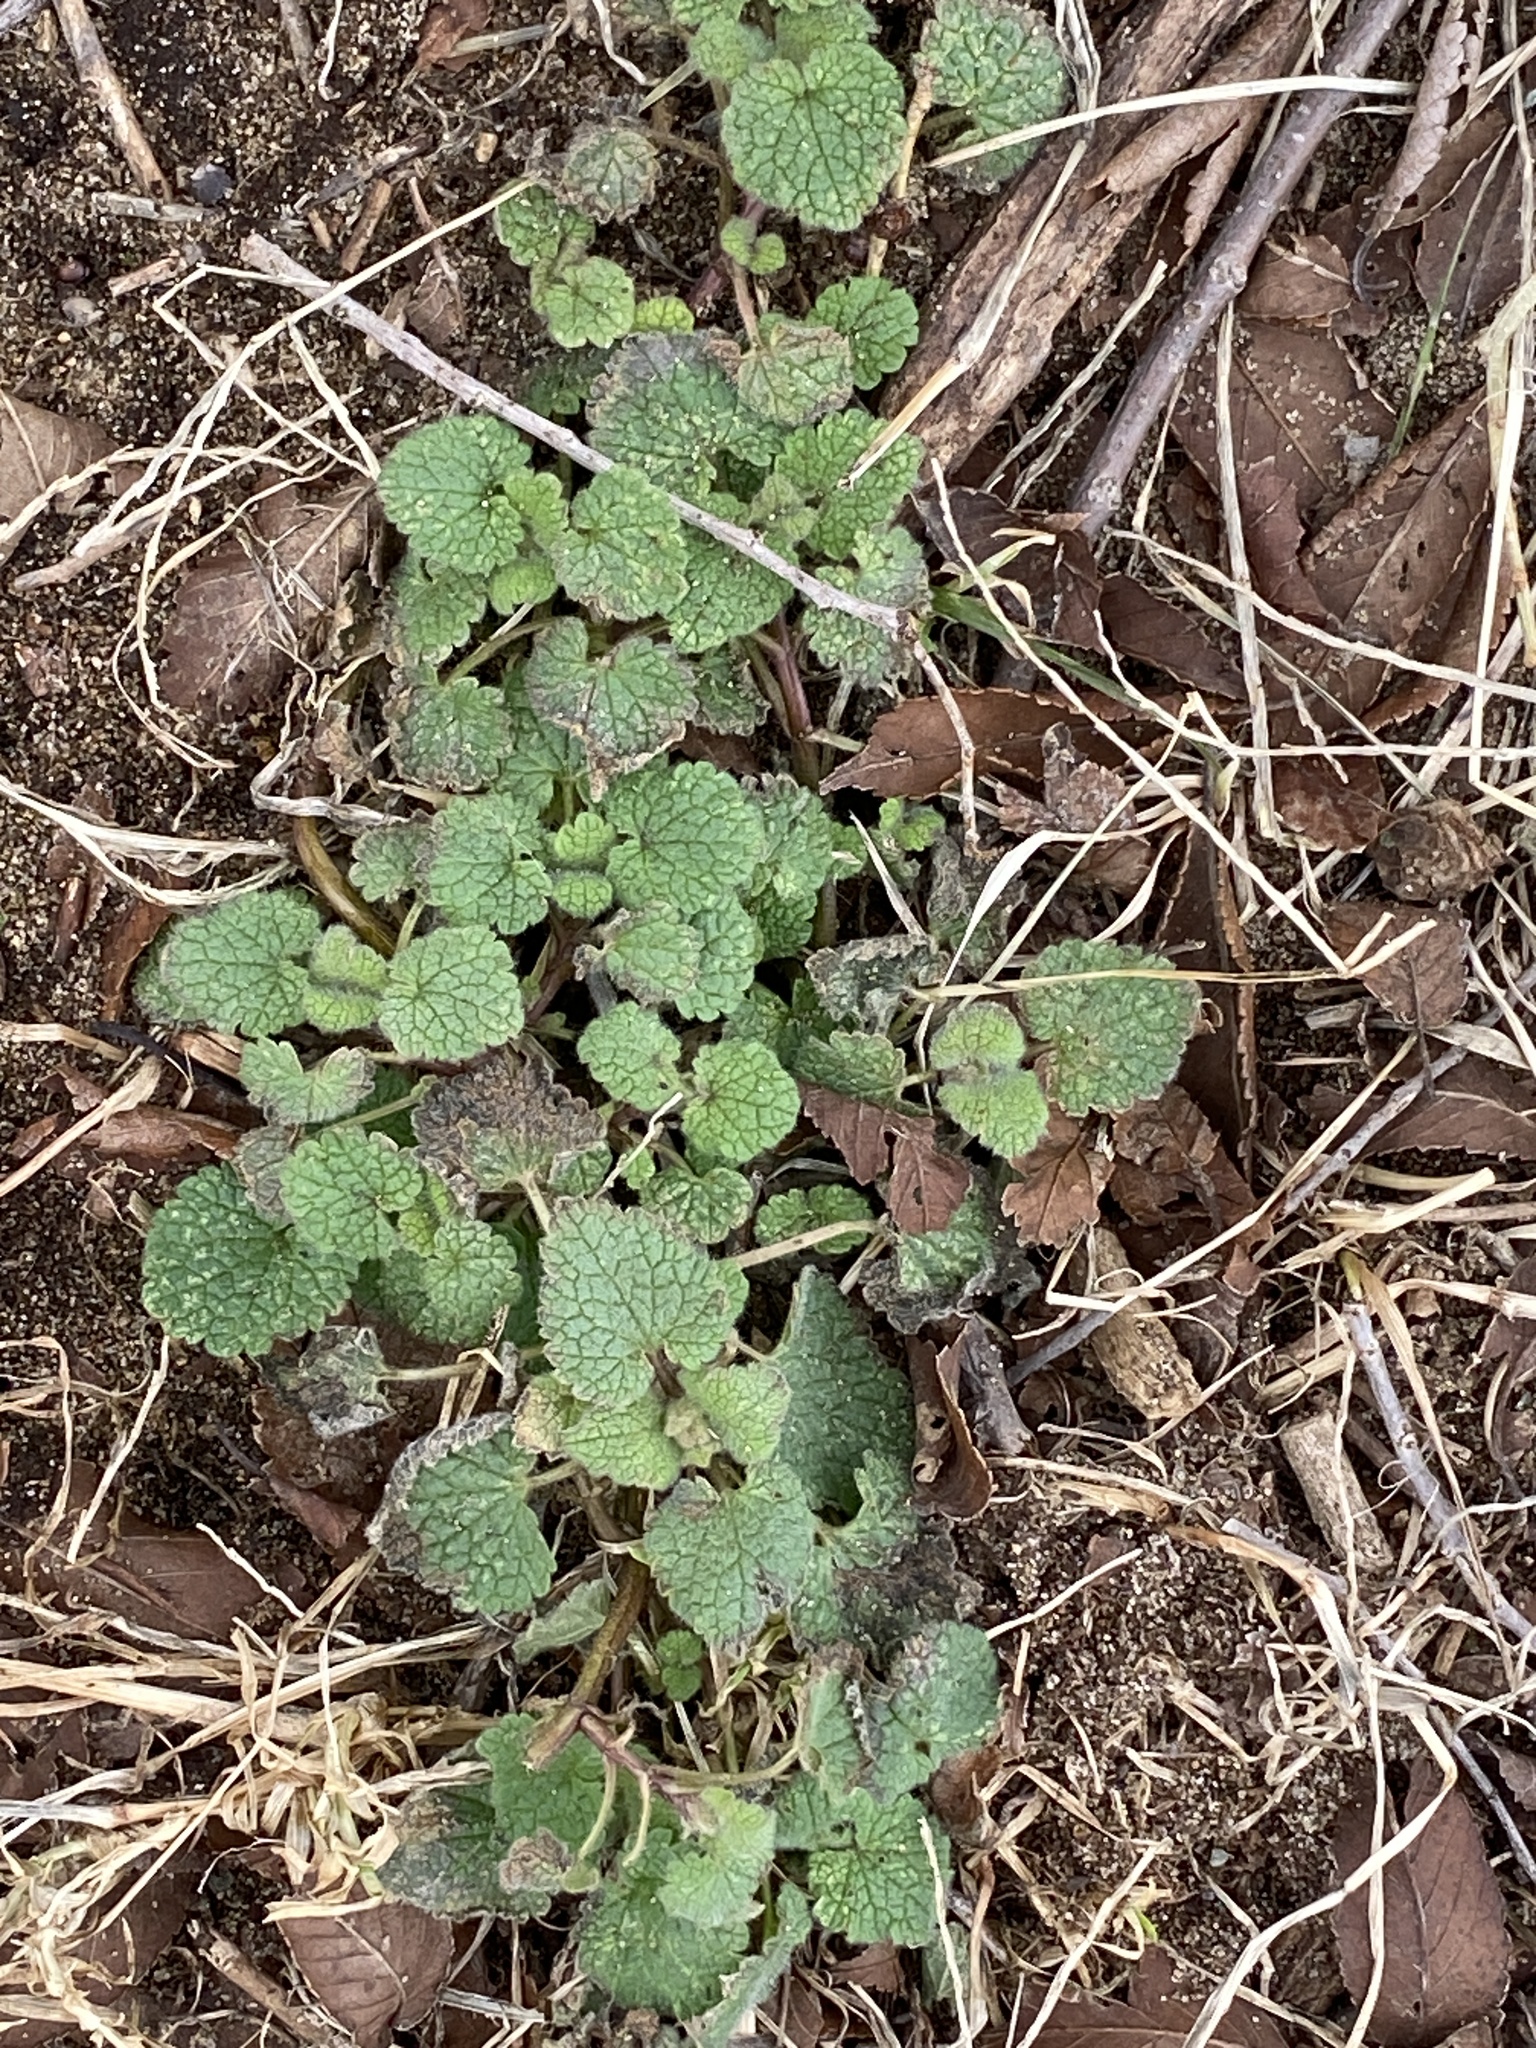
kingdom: Plantae
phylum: Tracheophyta
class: Magnoliopsida
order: Lamiales
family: Lamiaceae
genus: Lamium
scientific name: Lamium purpureum
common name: Red dead-nettle
